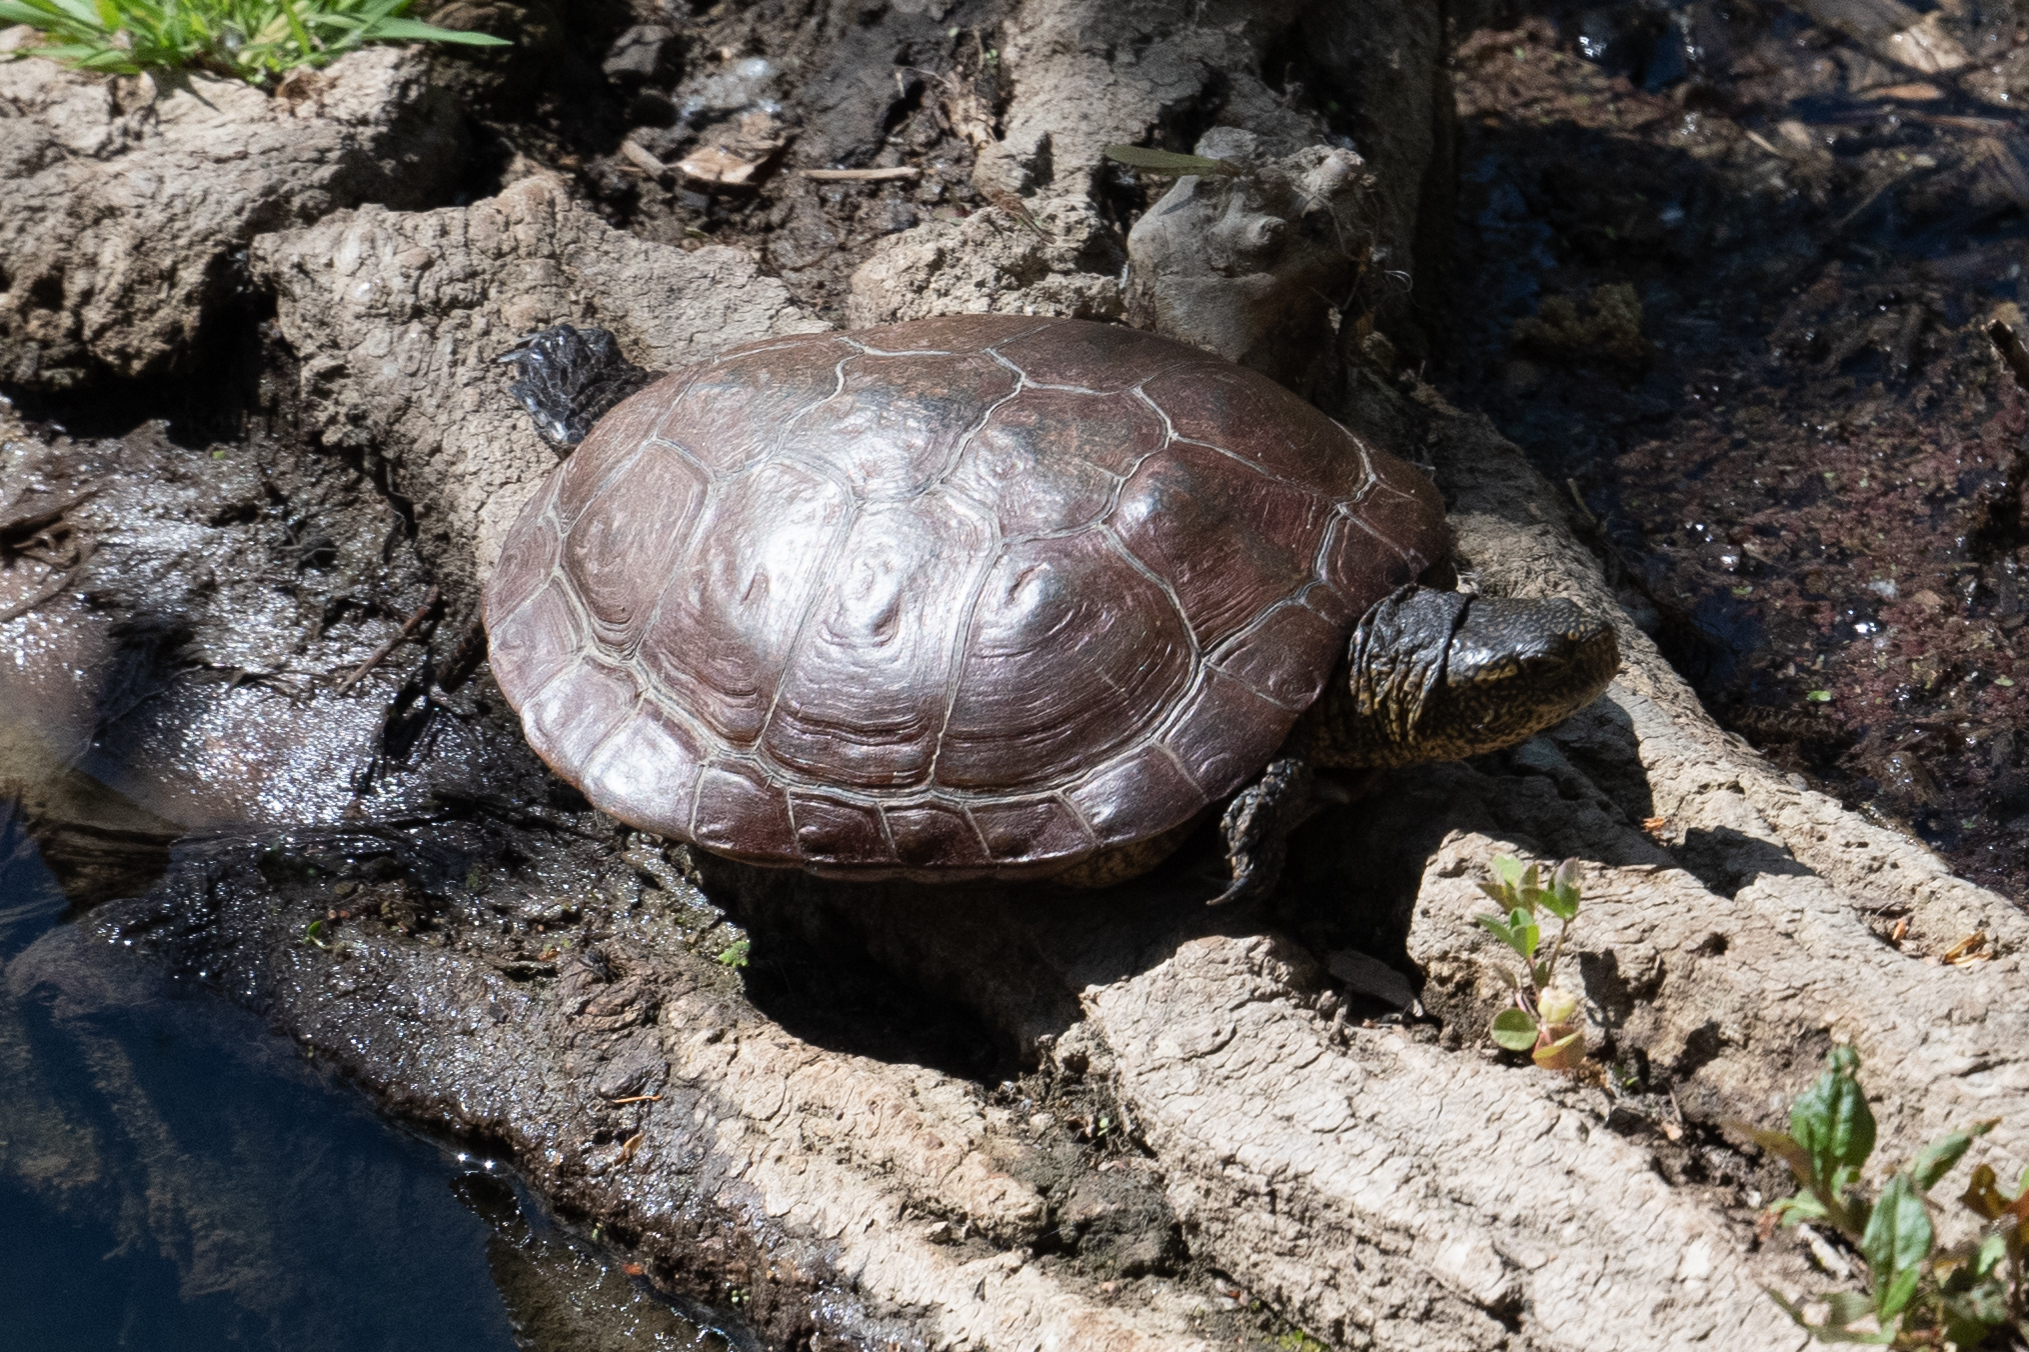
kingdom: Animalia
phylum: Chordata
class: Testudines
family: Emydidae
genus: Actinemys
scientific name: Actinemys marmorata
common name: Western pond turtle
